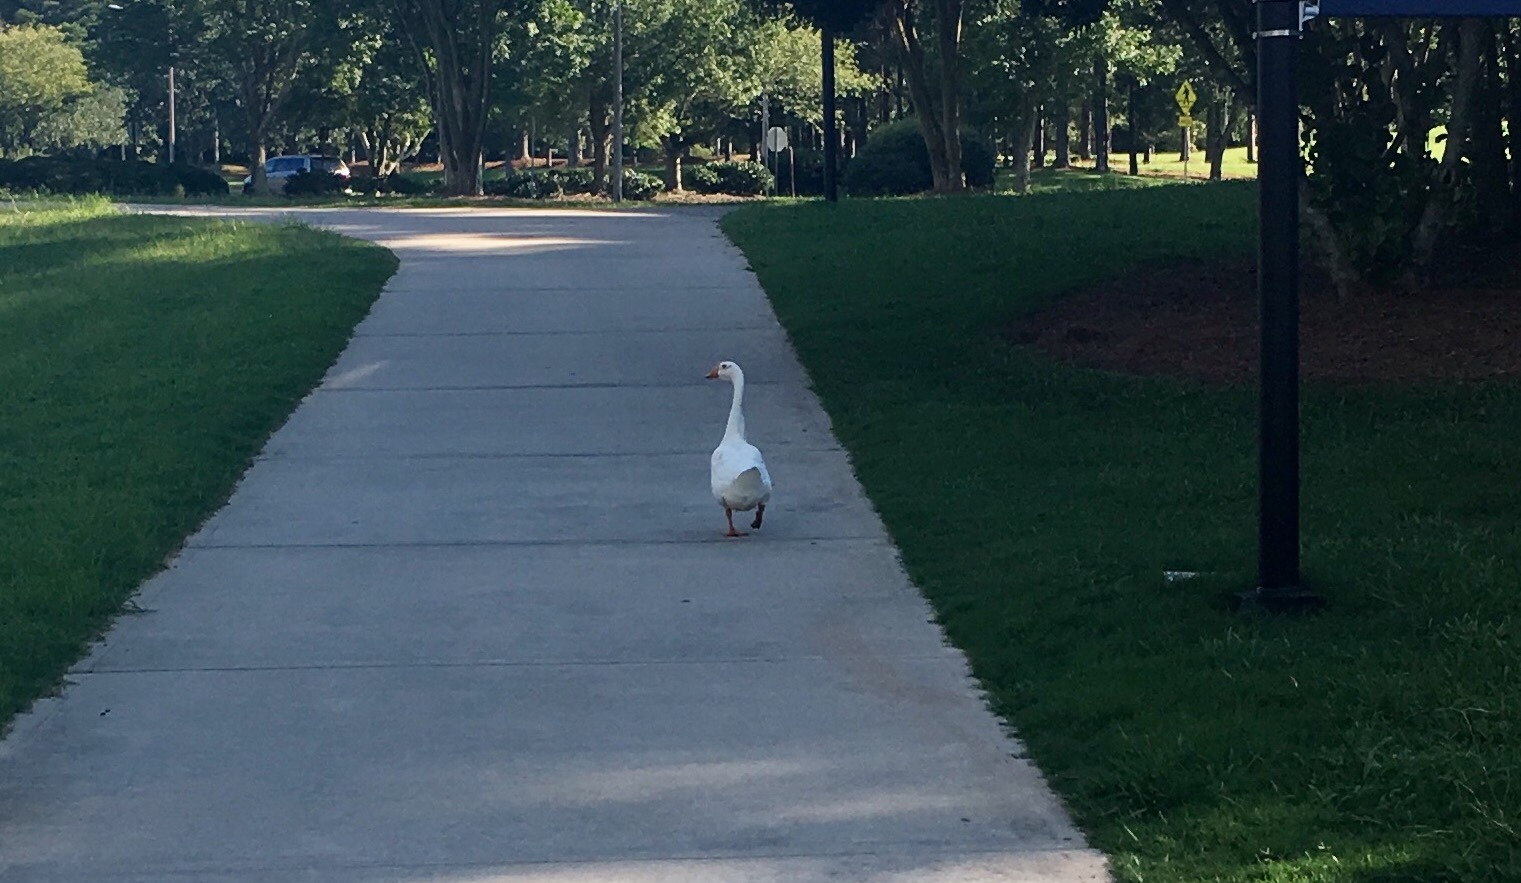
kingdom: Animalia
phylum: Chordata
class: Aves
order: Anseriformes
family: Anatidae
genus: Anser
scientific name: Anser anser
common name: Greylag goose
